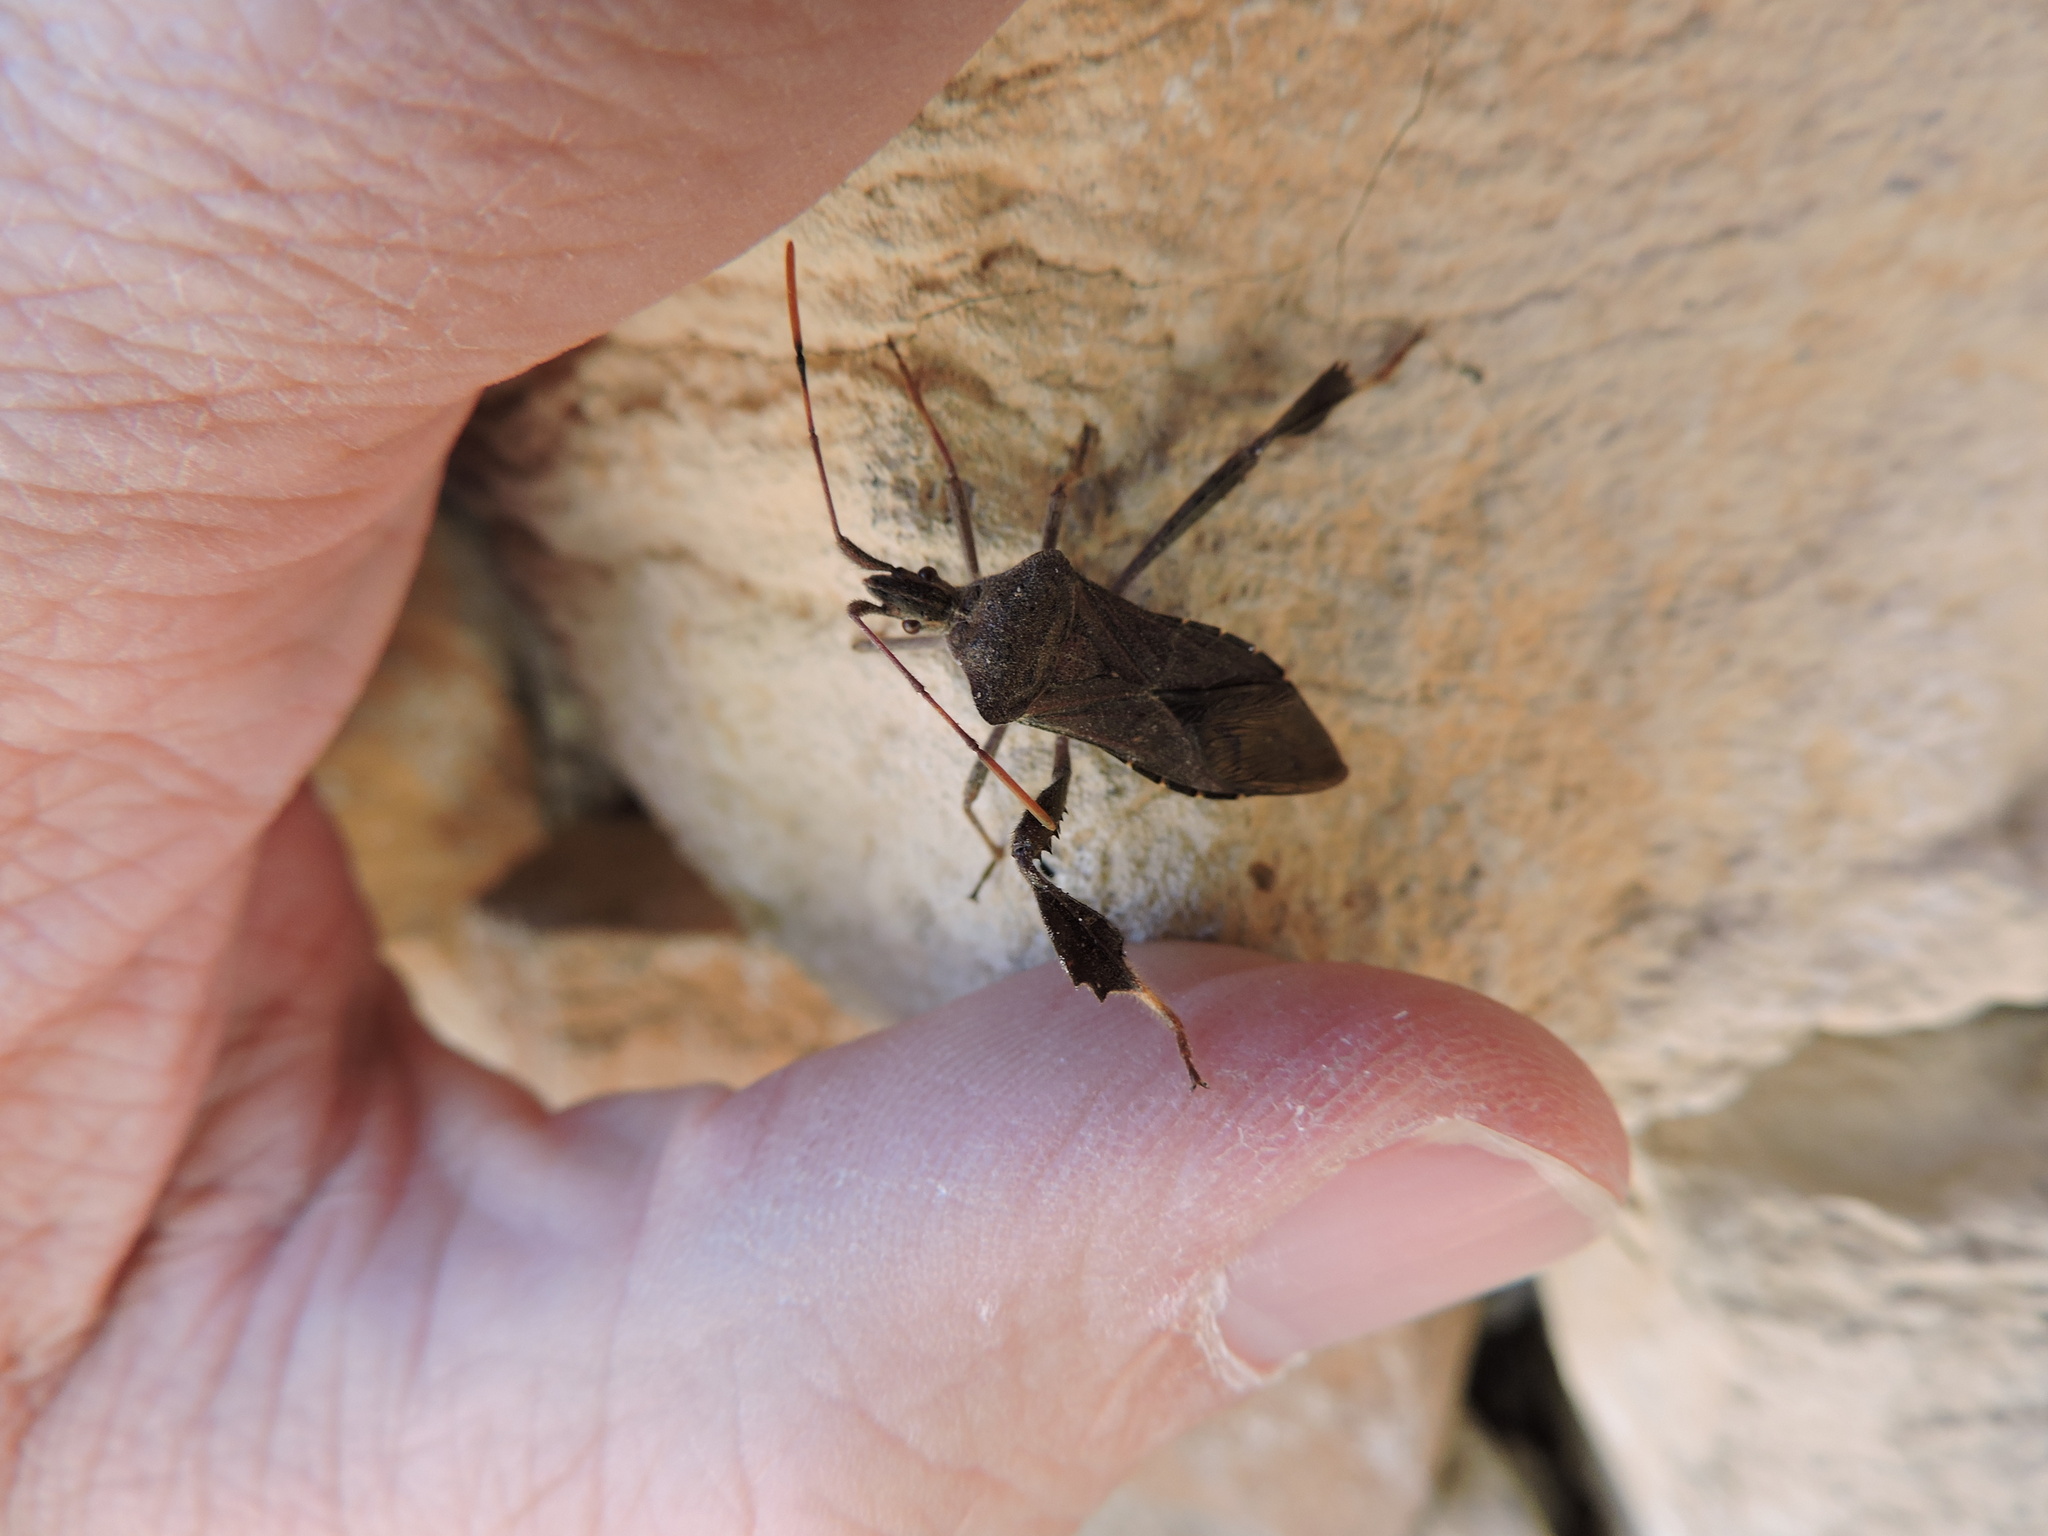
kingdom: Animalia
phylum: Arthropoda
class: Insecta
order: Hemiptera
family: Coreidae
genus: Leptoglossus
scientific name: Leptoglossus oppositus
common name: Northern leaf-footed bug
